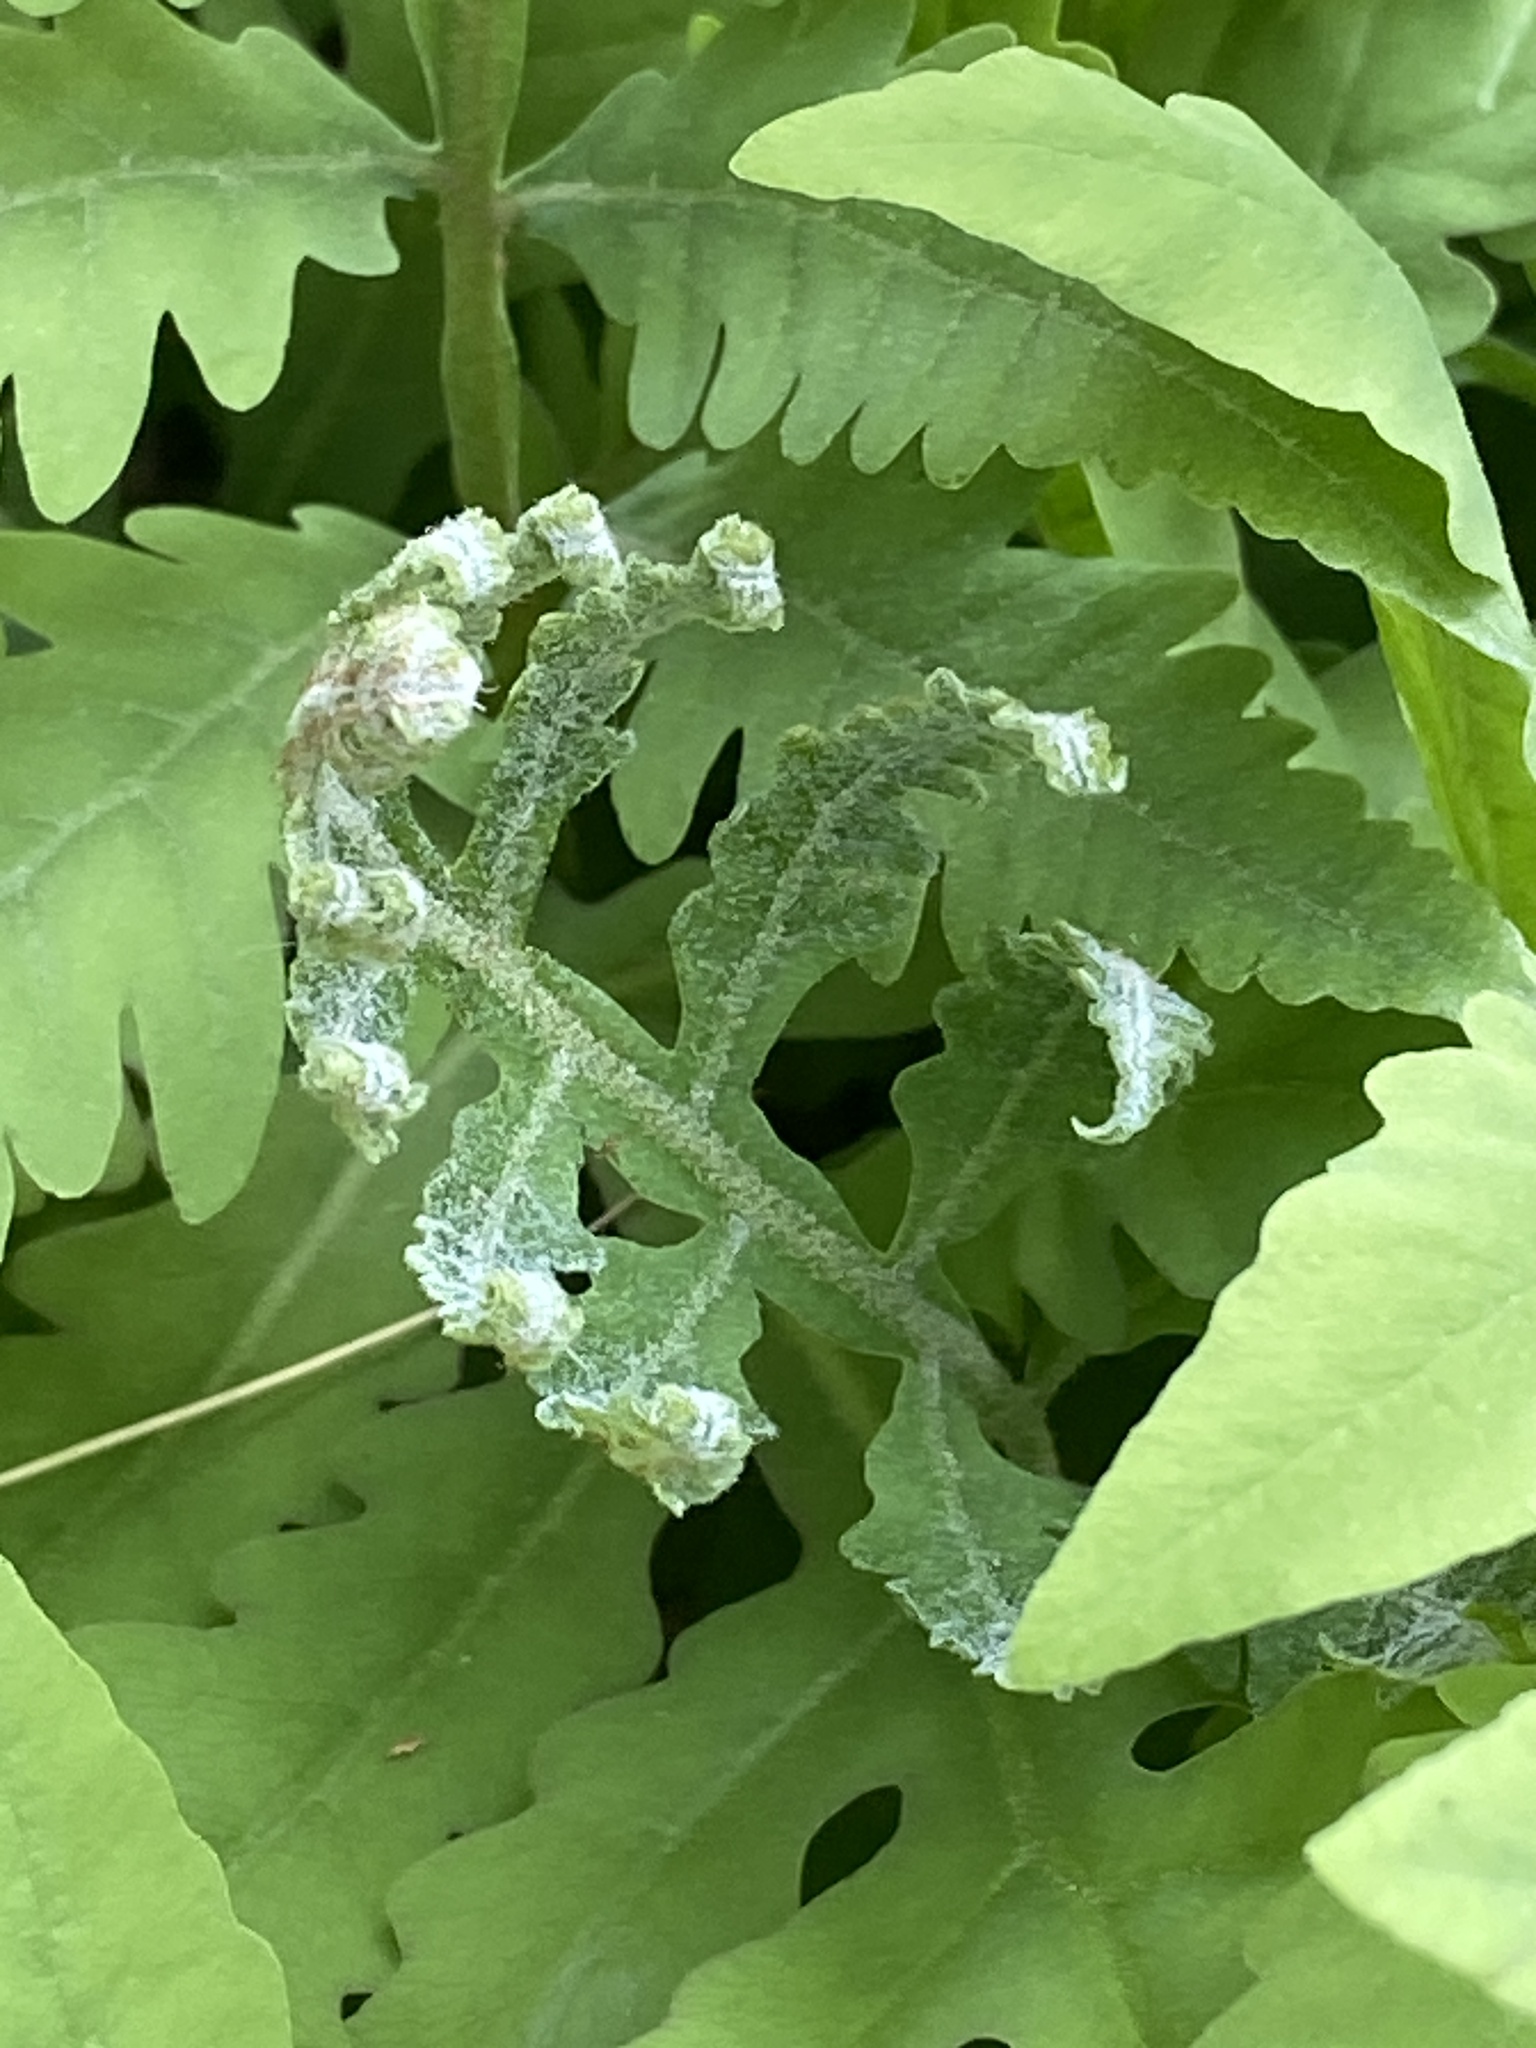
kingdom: Plantae
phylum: Tracheophyta
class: Polypodiopsida
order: Polypodiales
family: Onocleaceae
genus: Onoclea
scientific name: Onoclea sensibilis
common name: Sensitive fern
